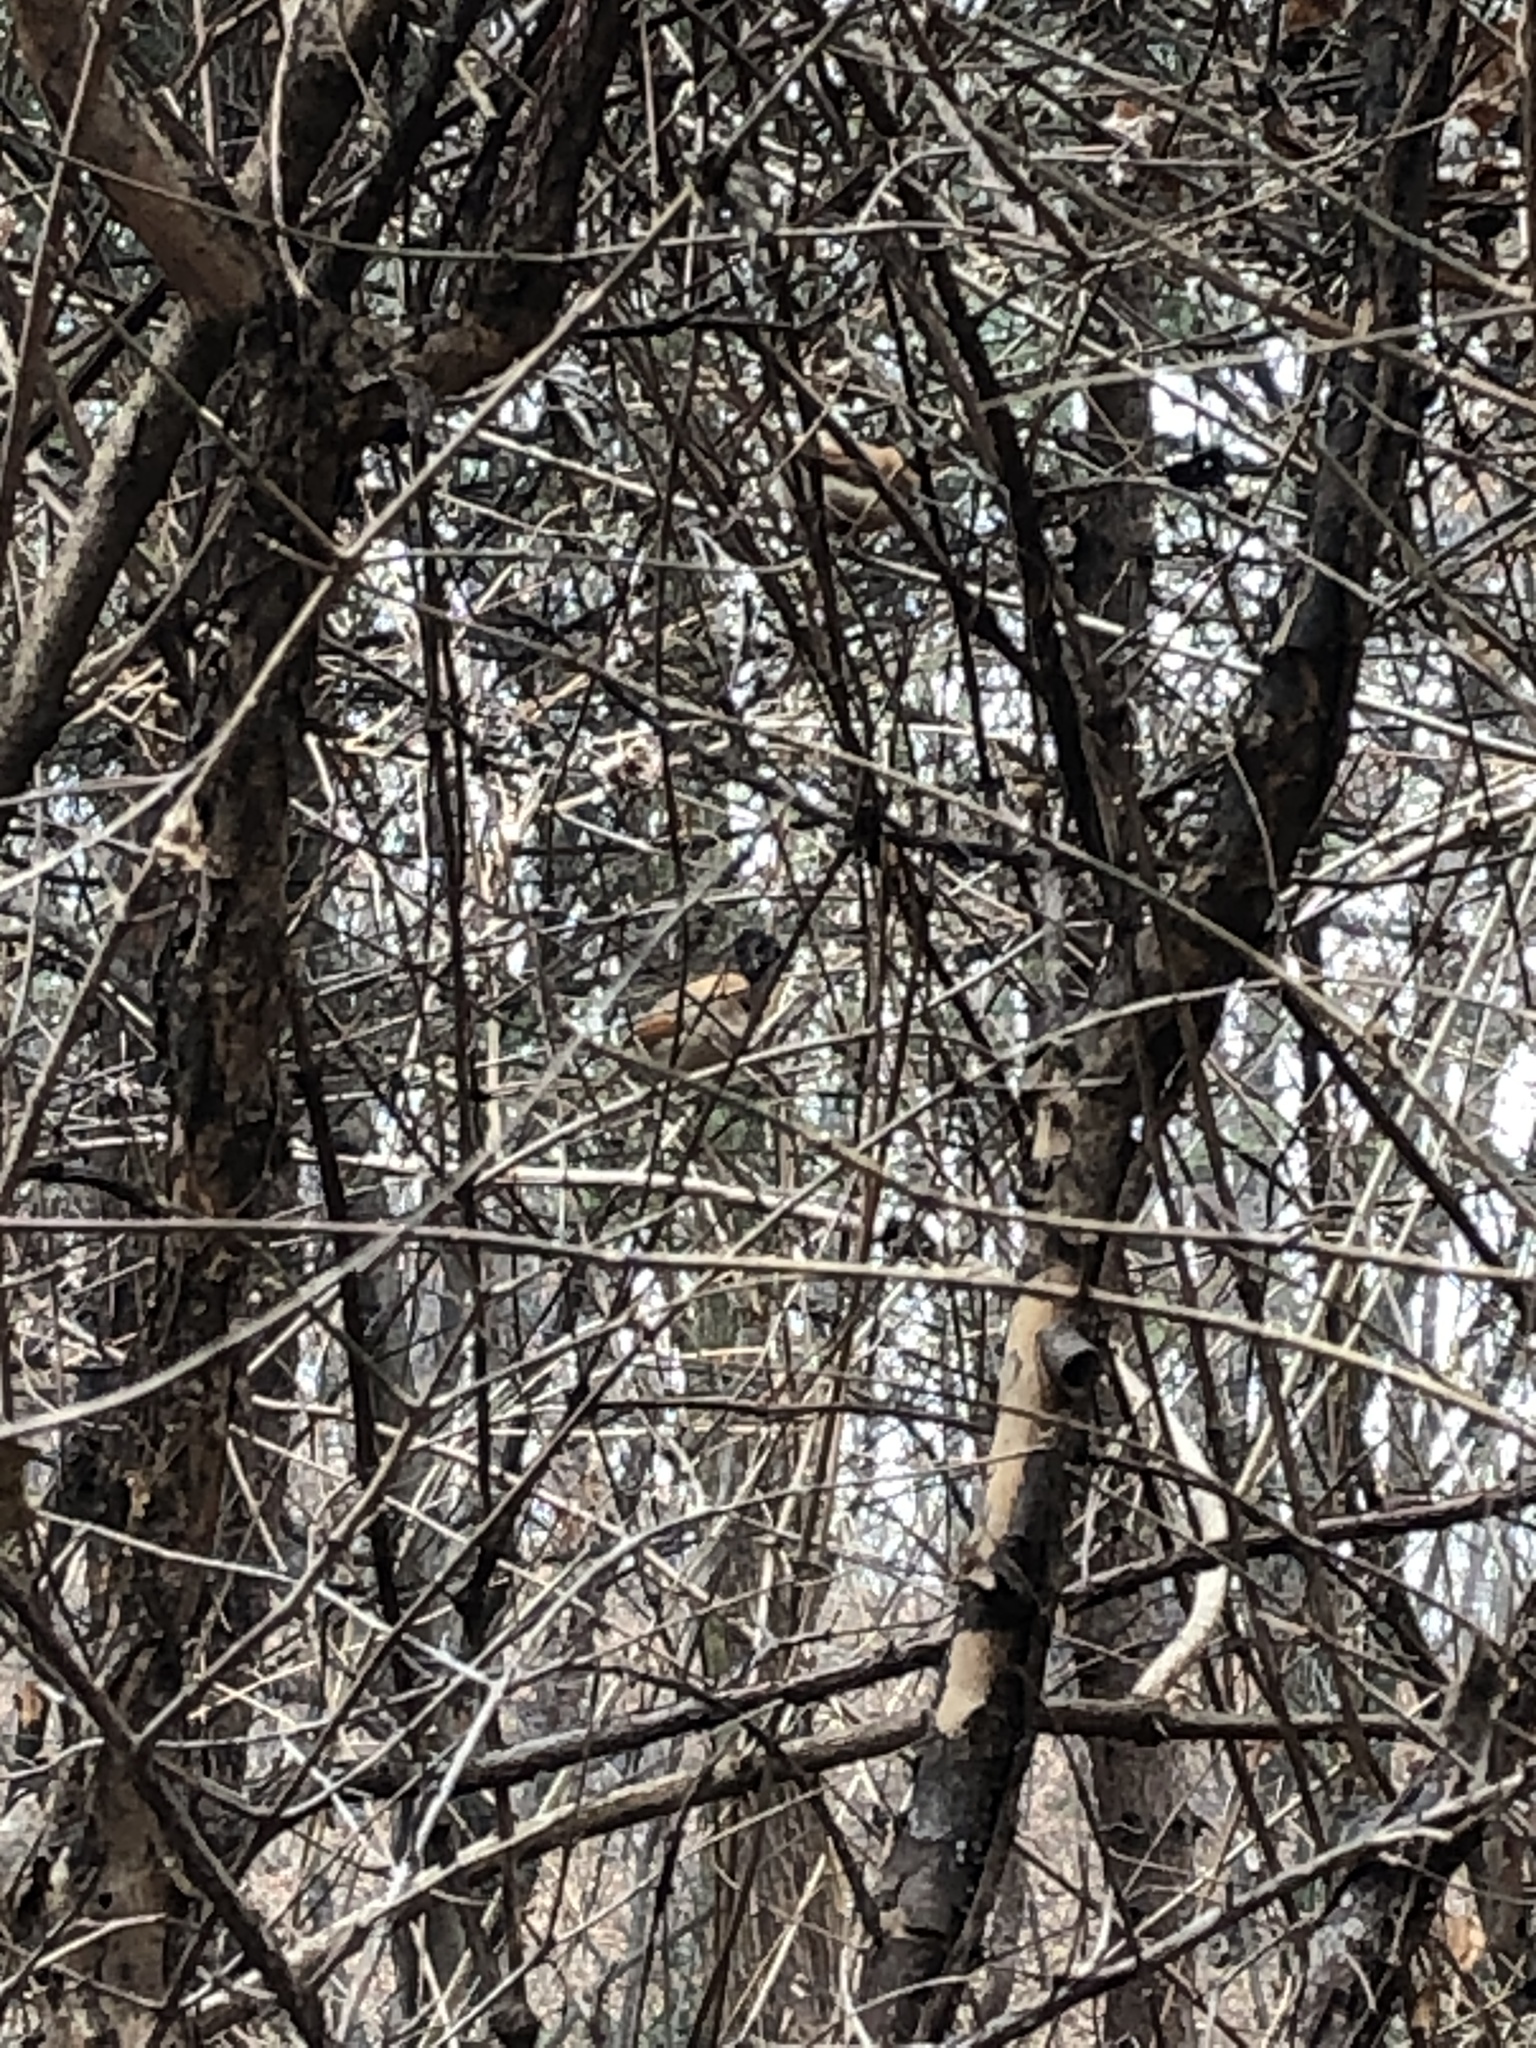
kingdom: Animalia
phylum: Chordata
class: Aves
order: Passeriformes
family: Sylviidae
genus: Sinosuthora
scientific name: Sinosuthora webbiana
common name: Vinous-throated parrotbill
